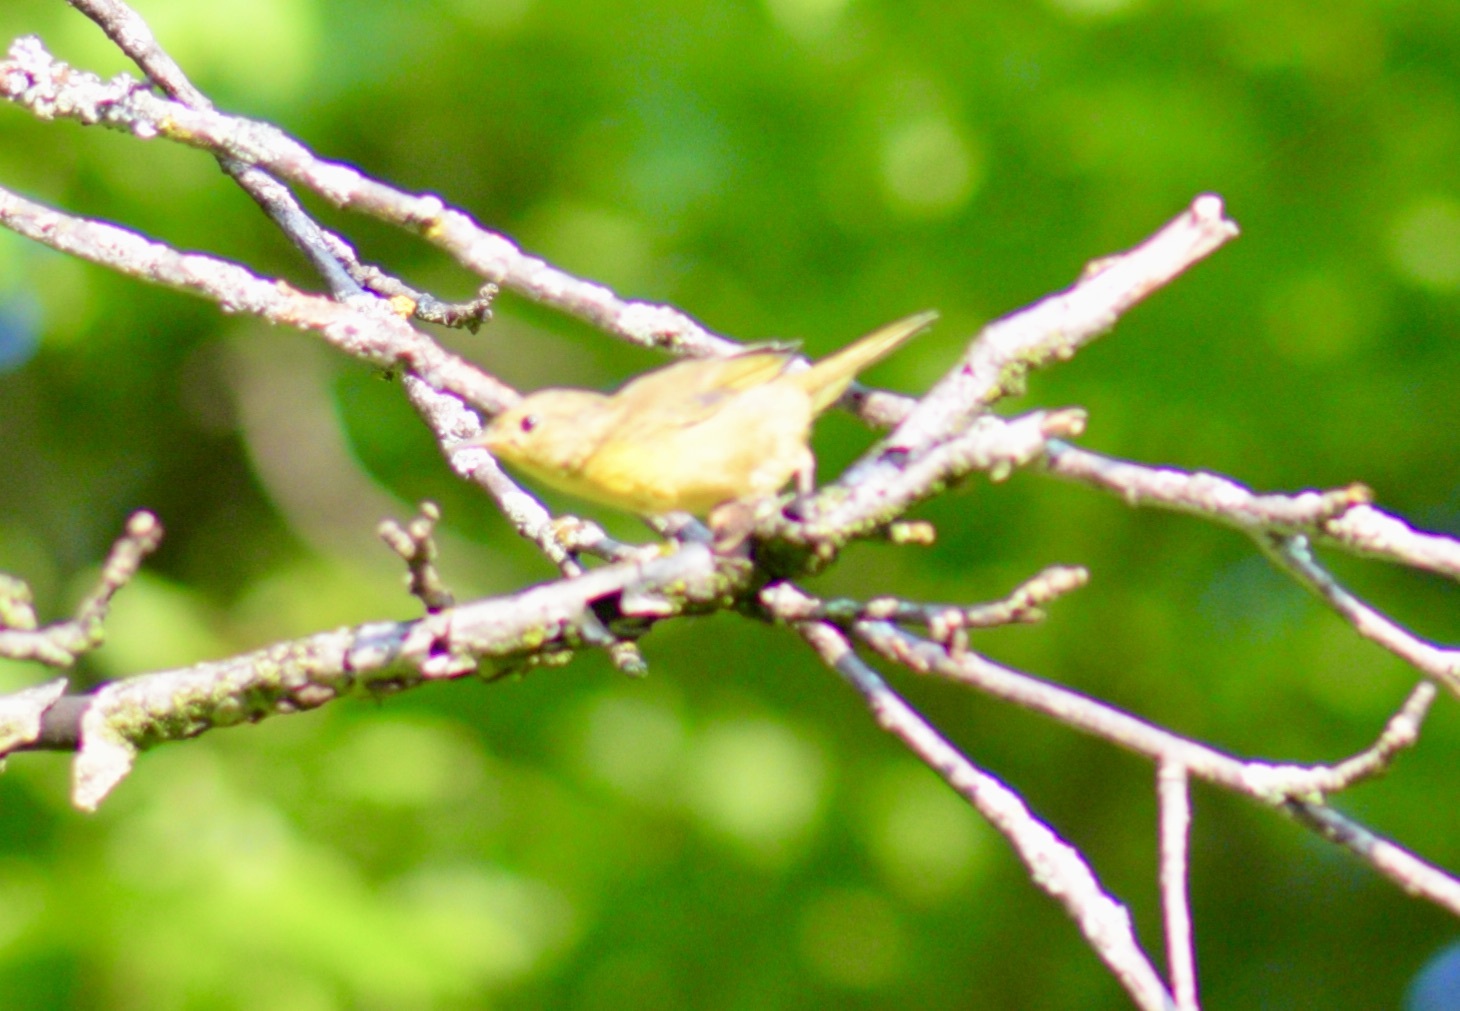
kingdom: Animalia
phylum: Chordata
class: Aves
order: Passeriformes
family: Parulidae
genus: Geothlypis
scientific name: Geothlypis trichas
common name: Common yellowthroat
